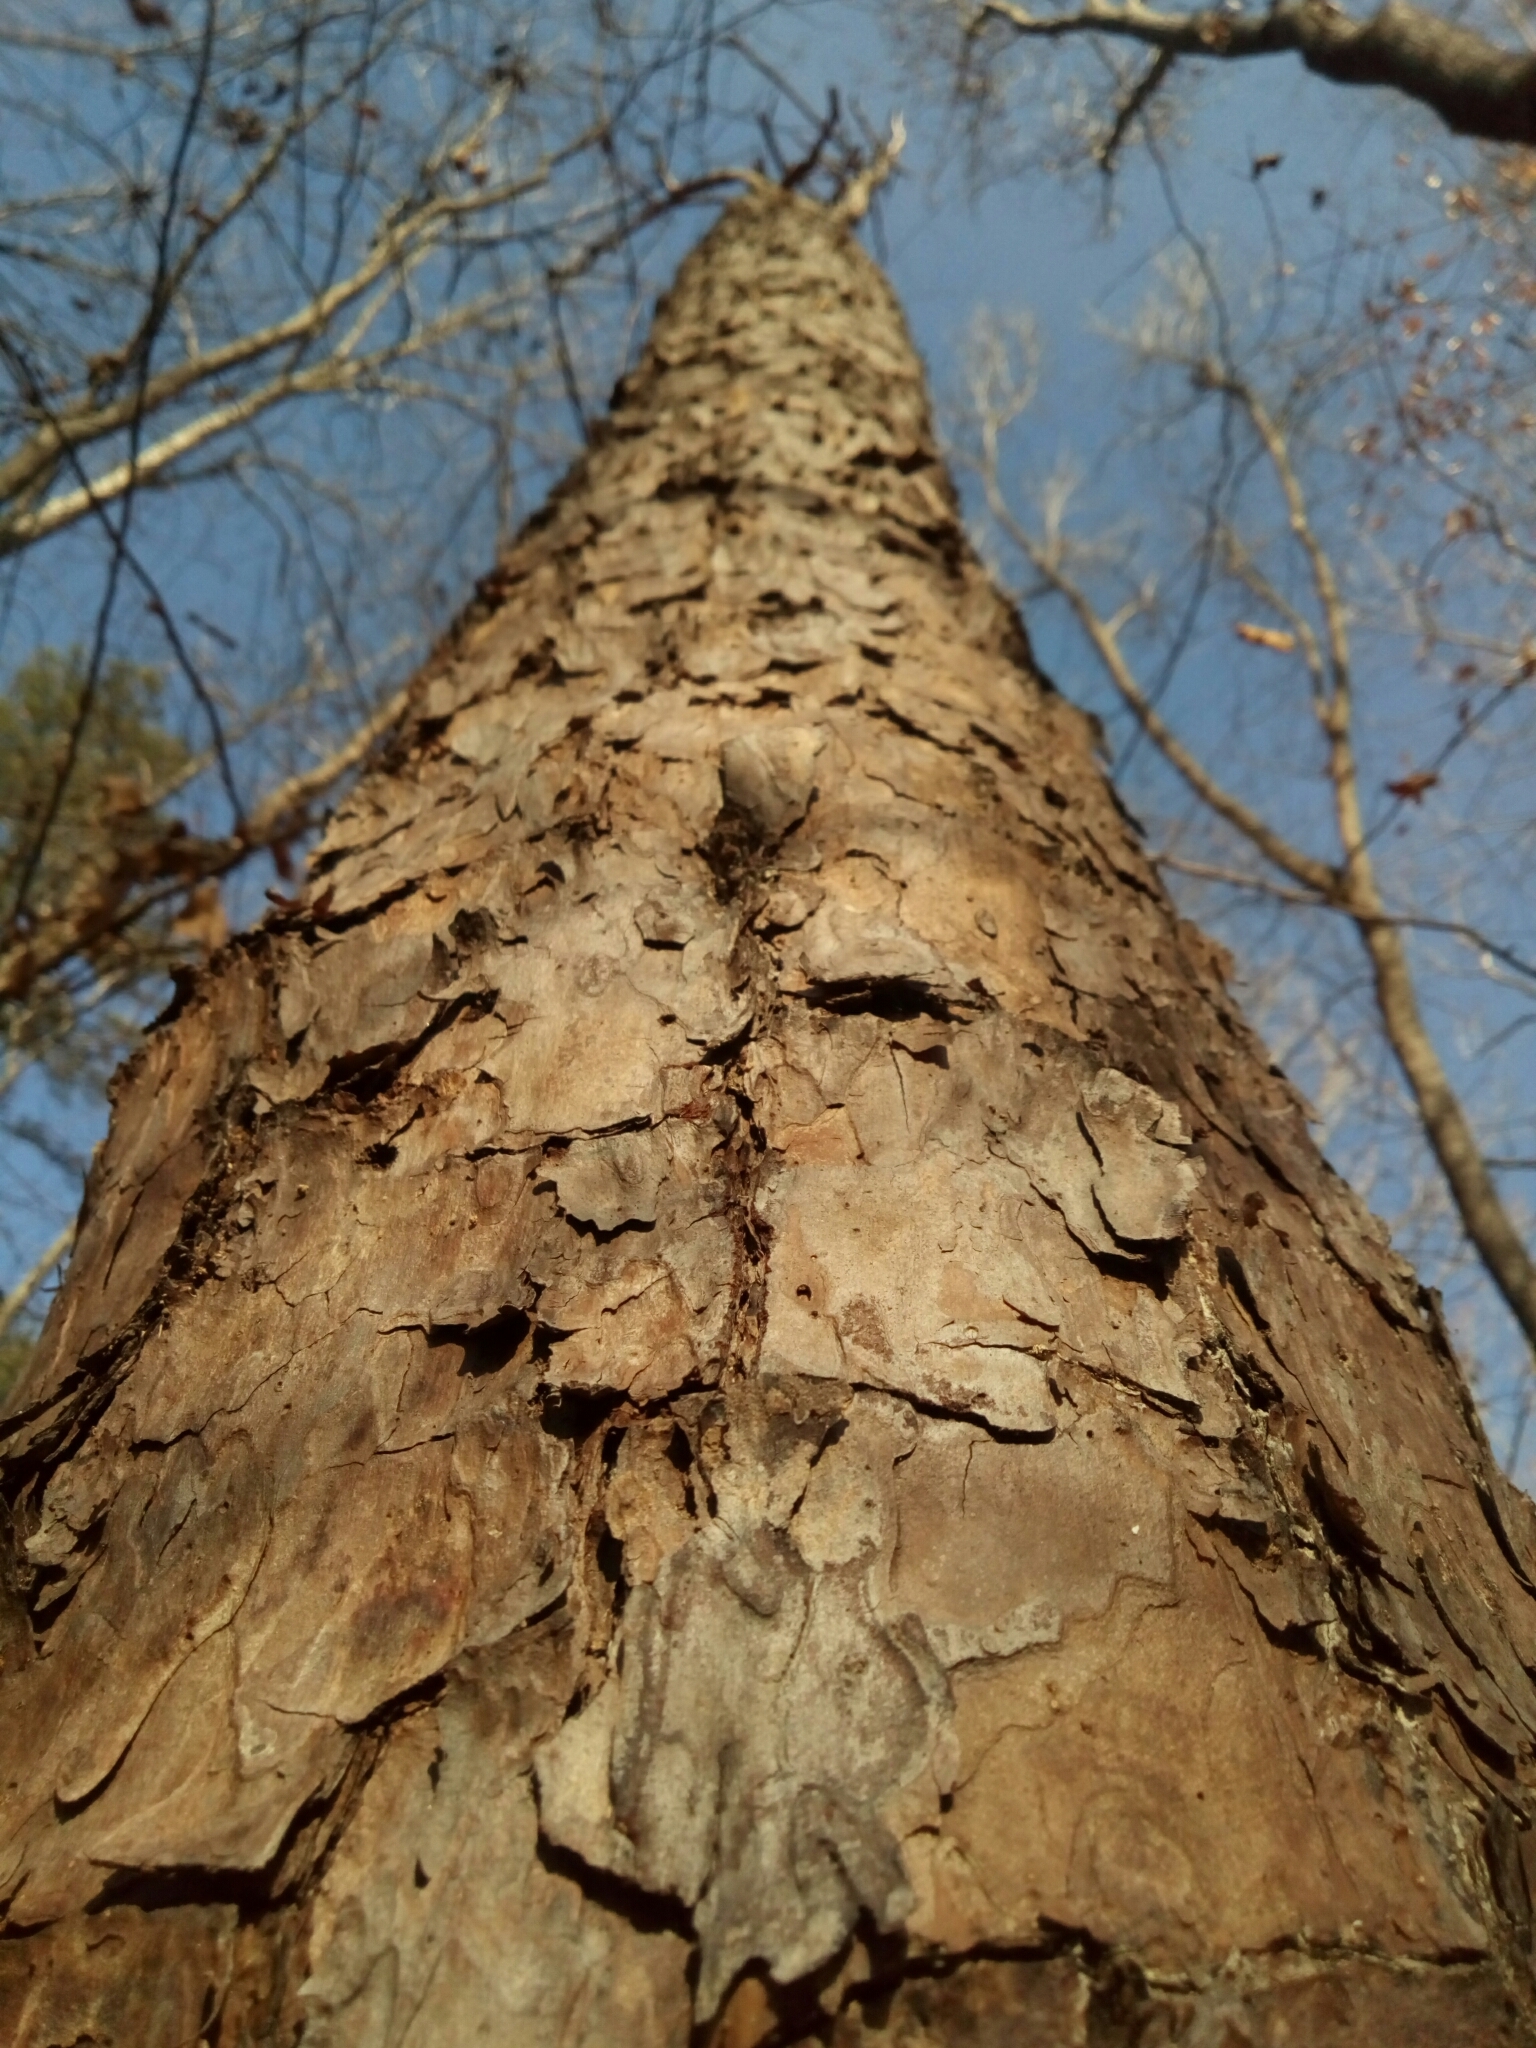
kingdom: Plantae
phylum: Tracheophyta
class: Pinopsida
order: Pinales
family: Pinaceae
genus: Pinus
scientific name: Pinus echinata
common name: Shortleaf pine
